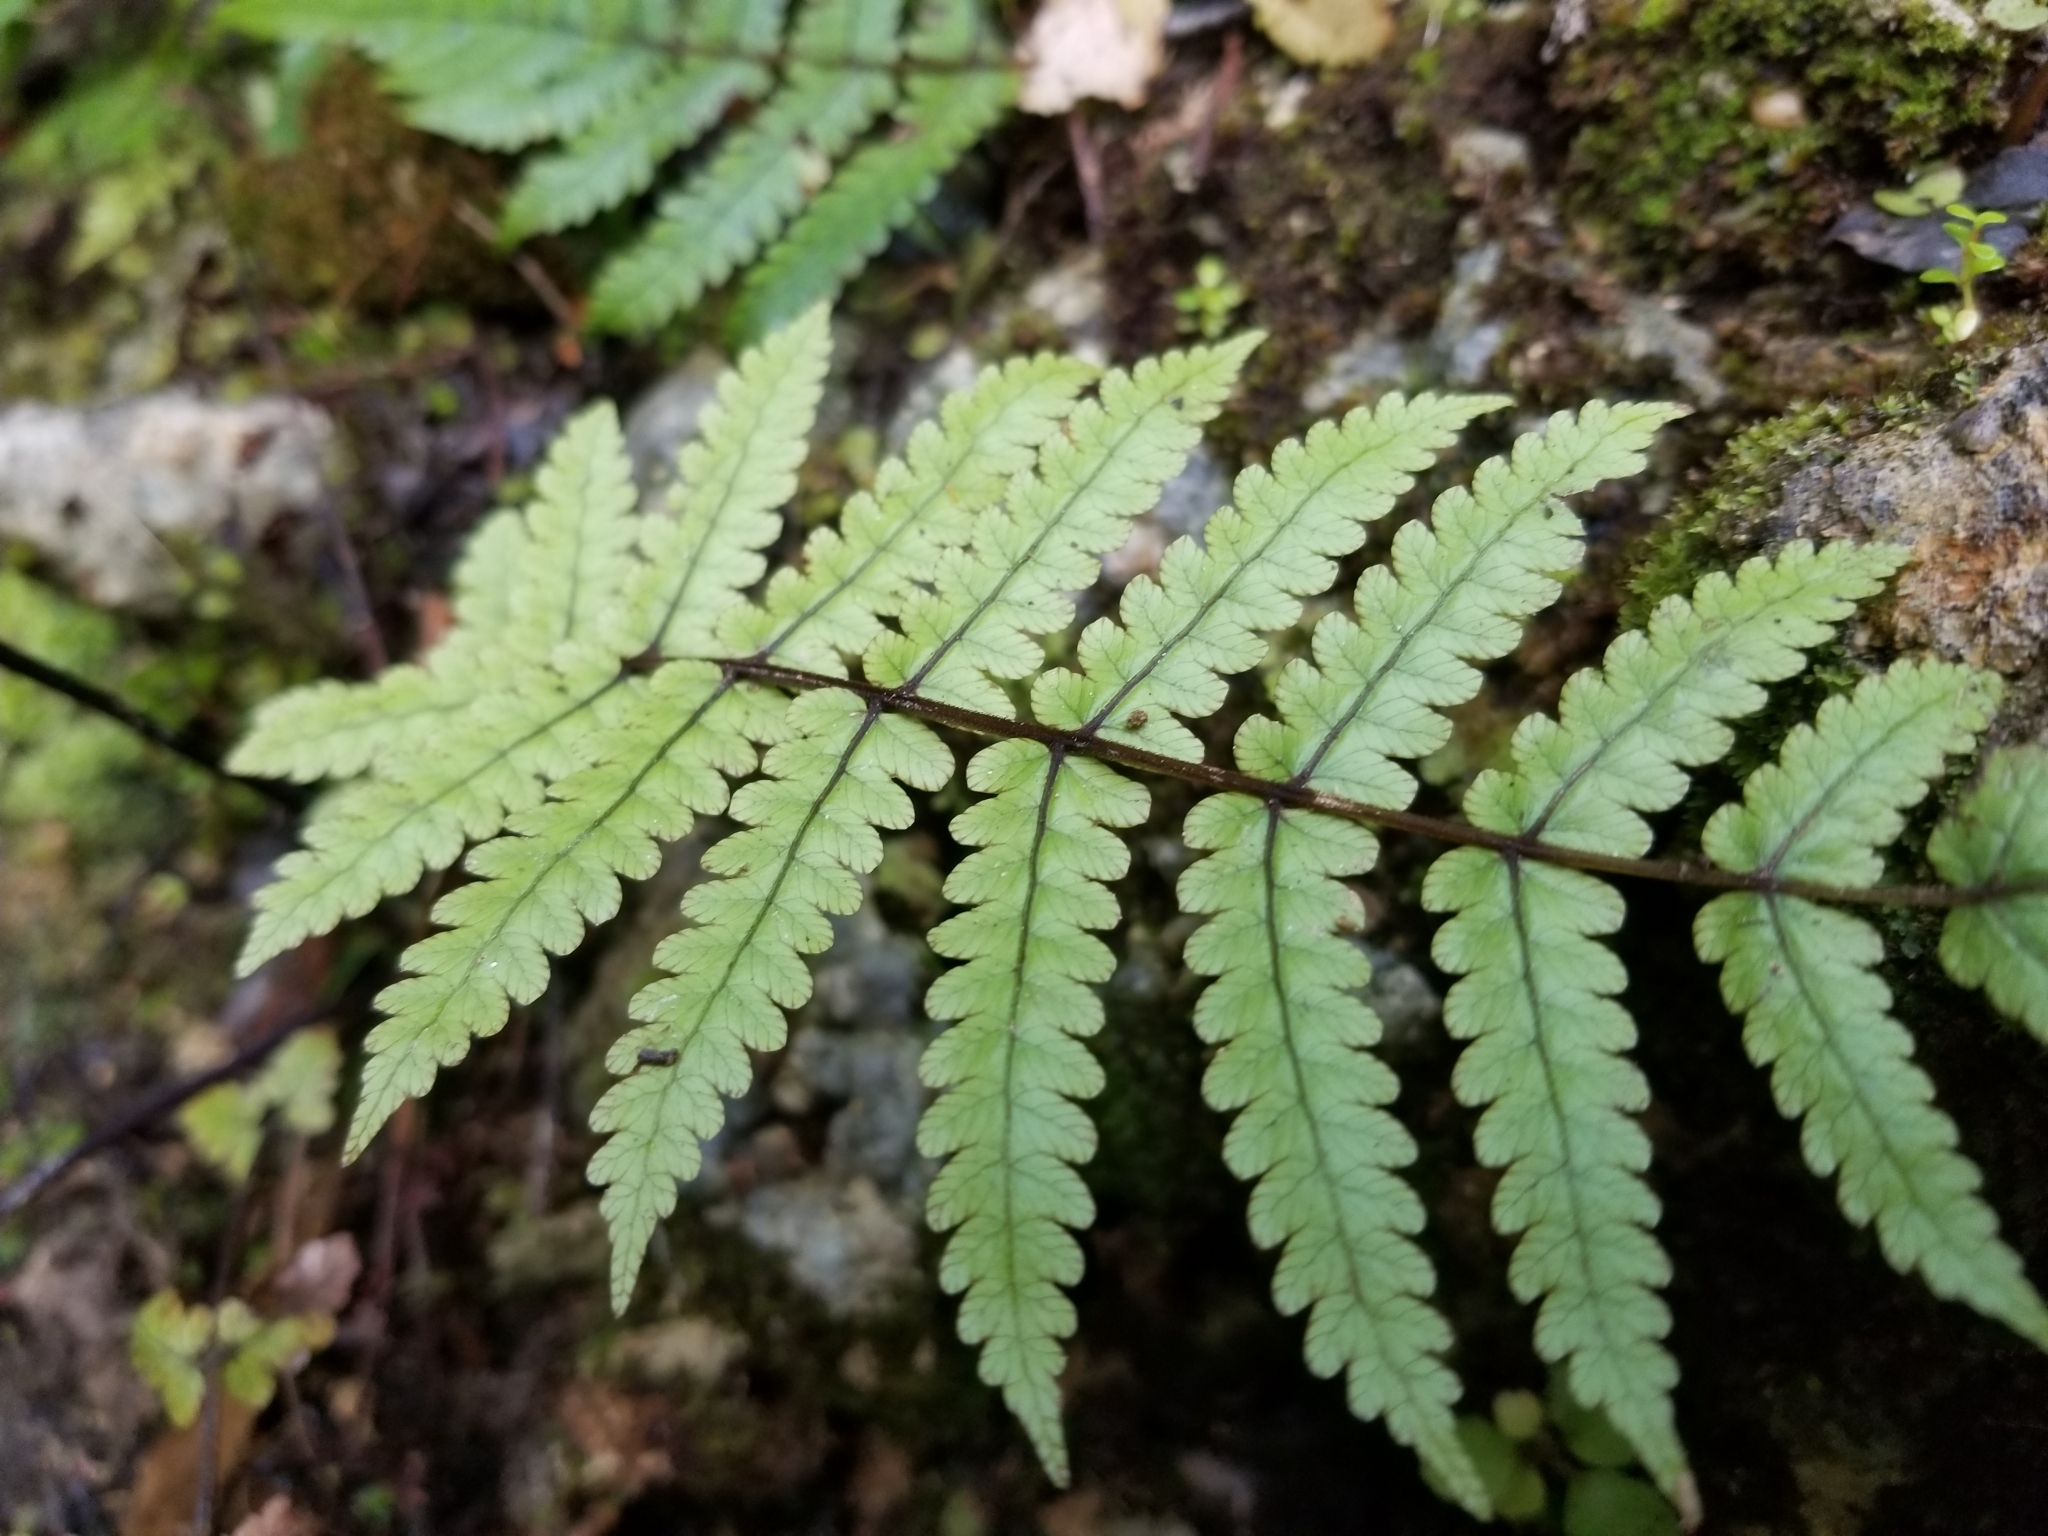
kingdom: Plantae
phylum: Tracheophyta
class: Polypodiopsida
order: Polypodiales
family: Thelypteridaceae
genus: Pakau
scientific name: Pakau pennigera
